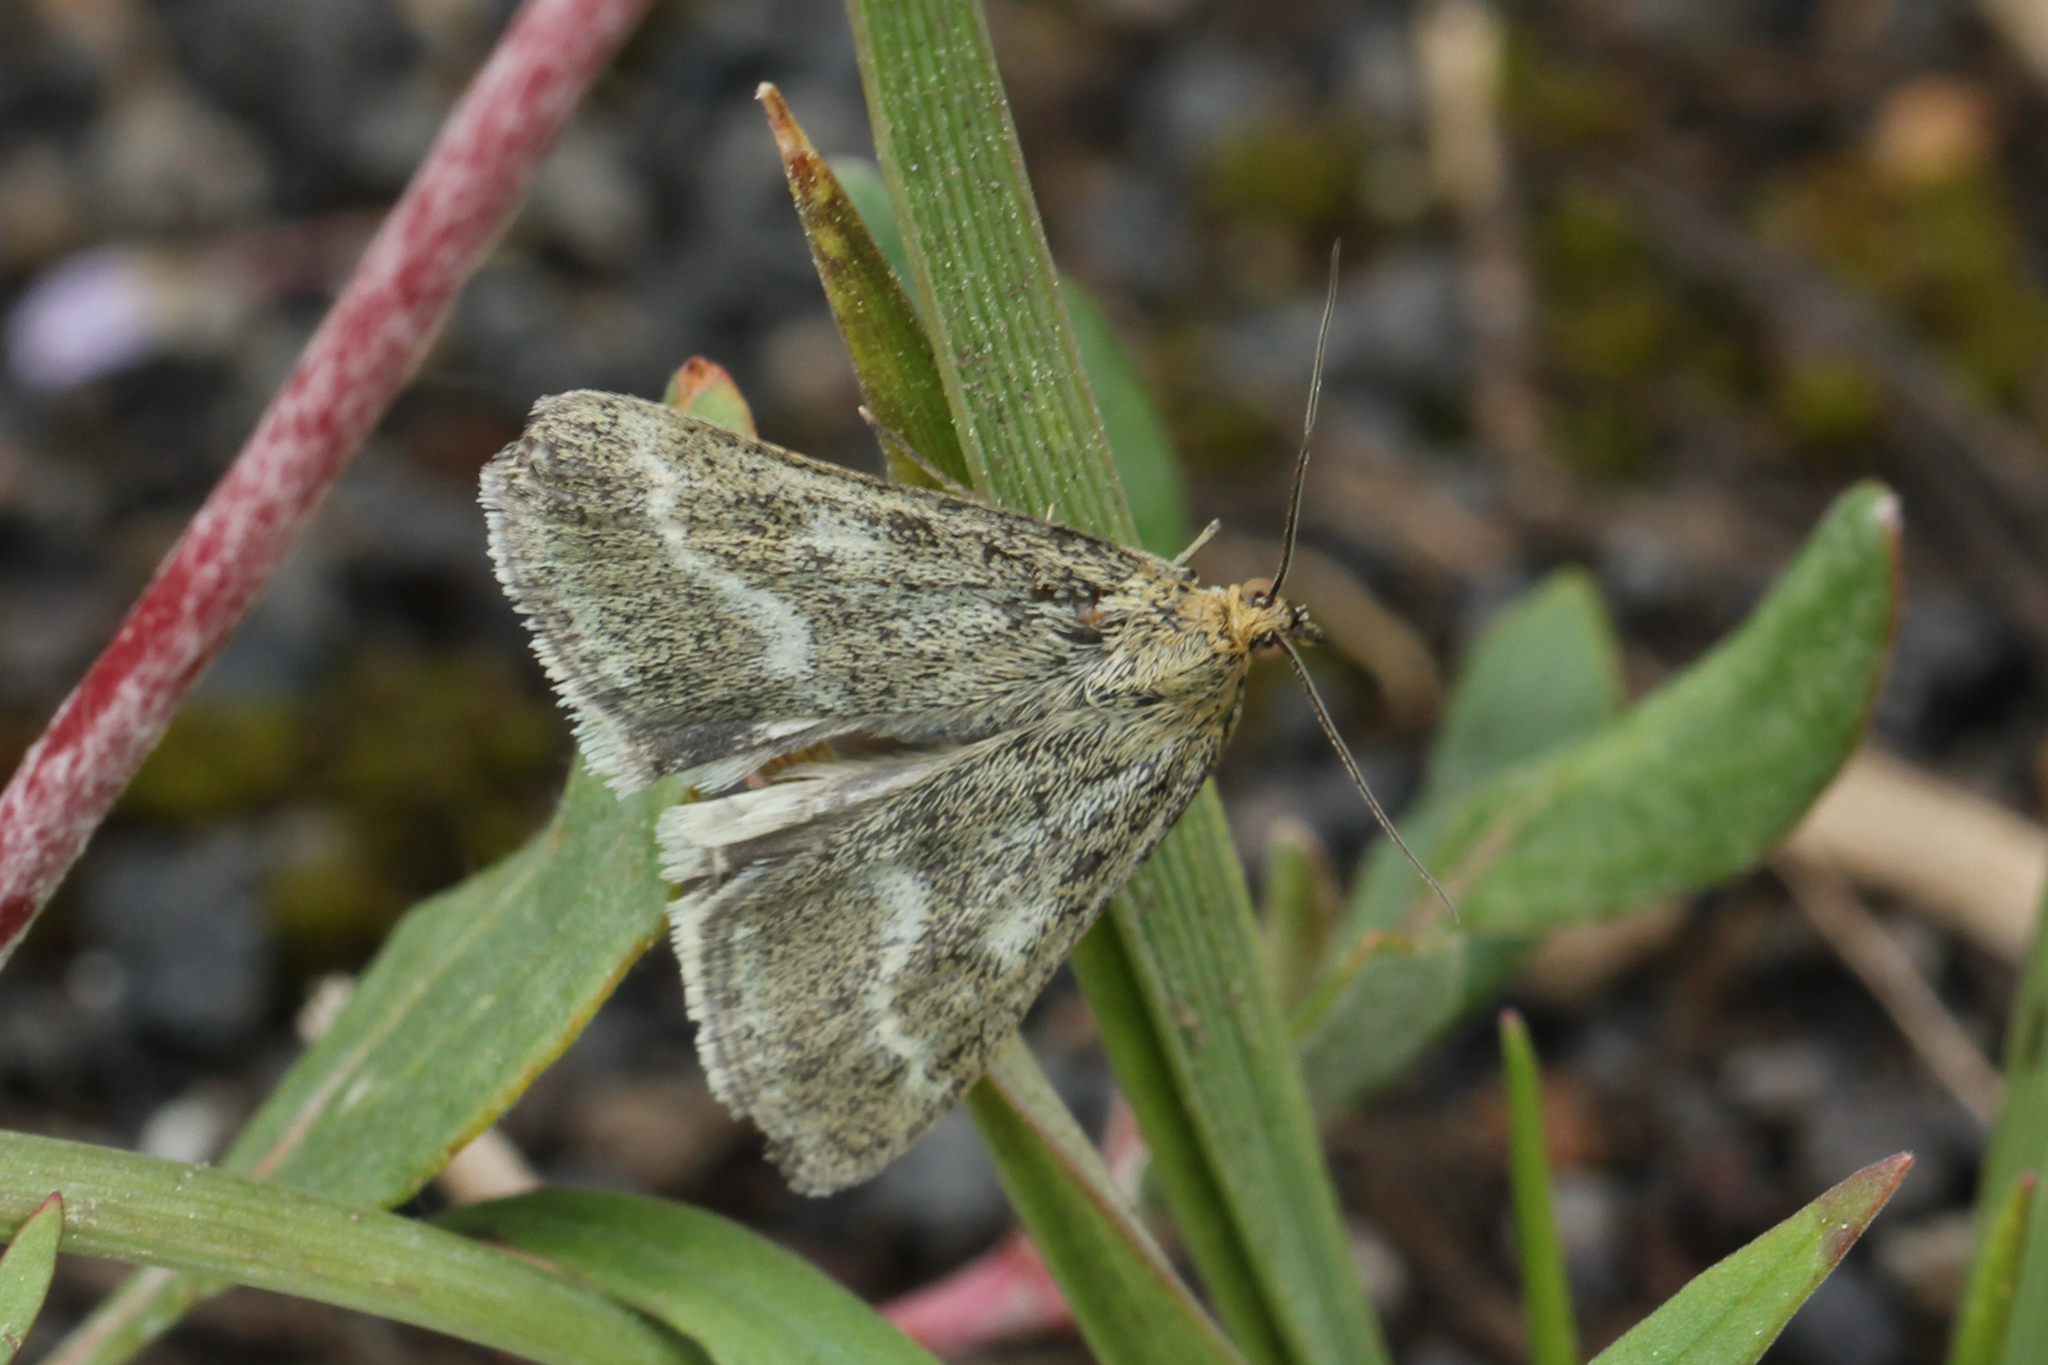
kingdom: Animalia
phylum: Arthropoda
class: Insecta
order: Lepidoptera
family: Crambidae
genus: Pyrausta
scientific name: Pyrausta unifascialis
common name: One-banded pyrausta
